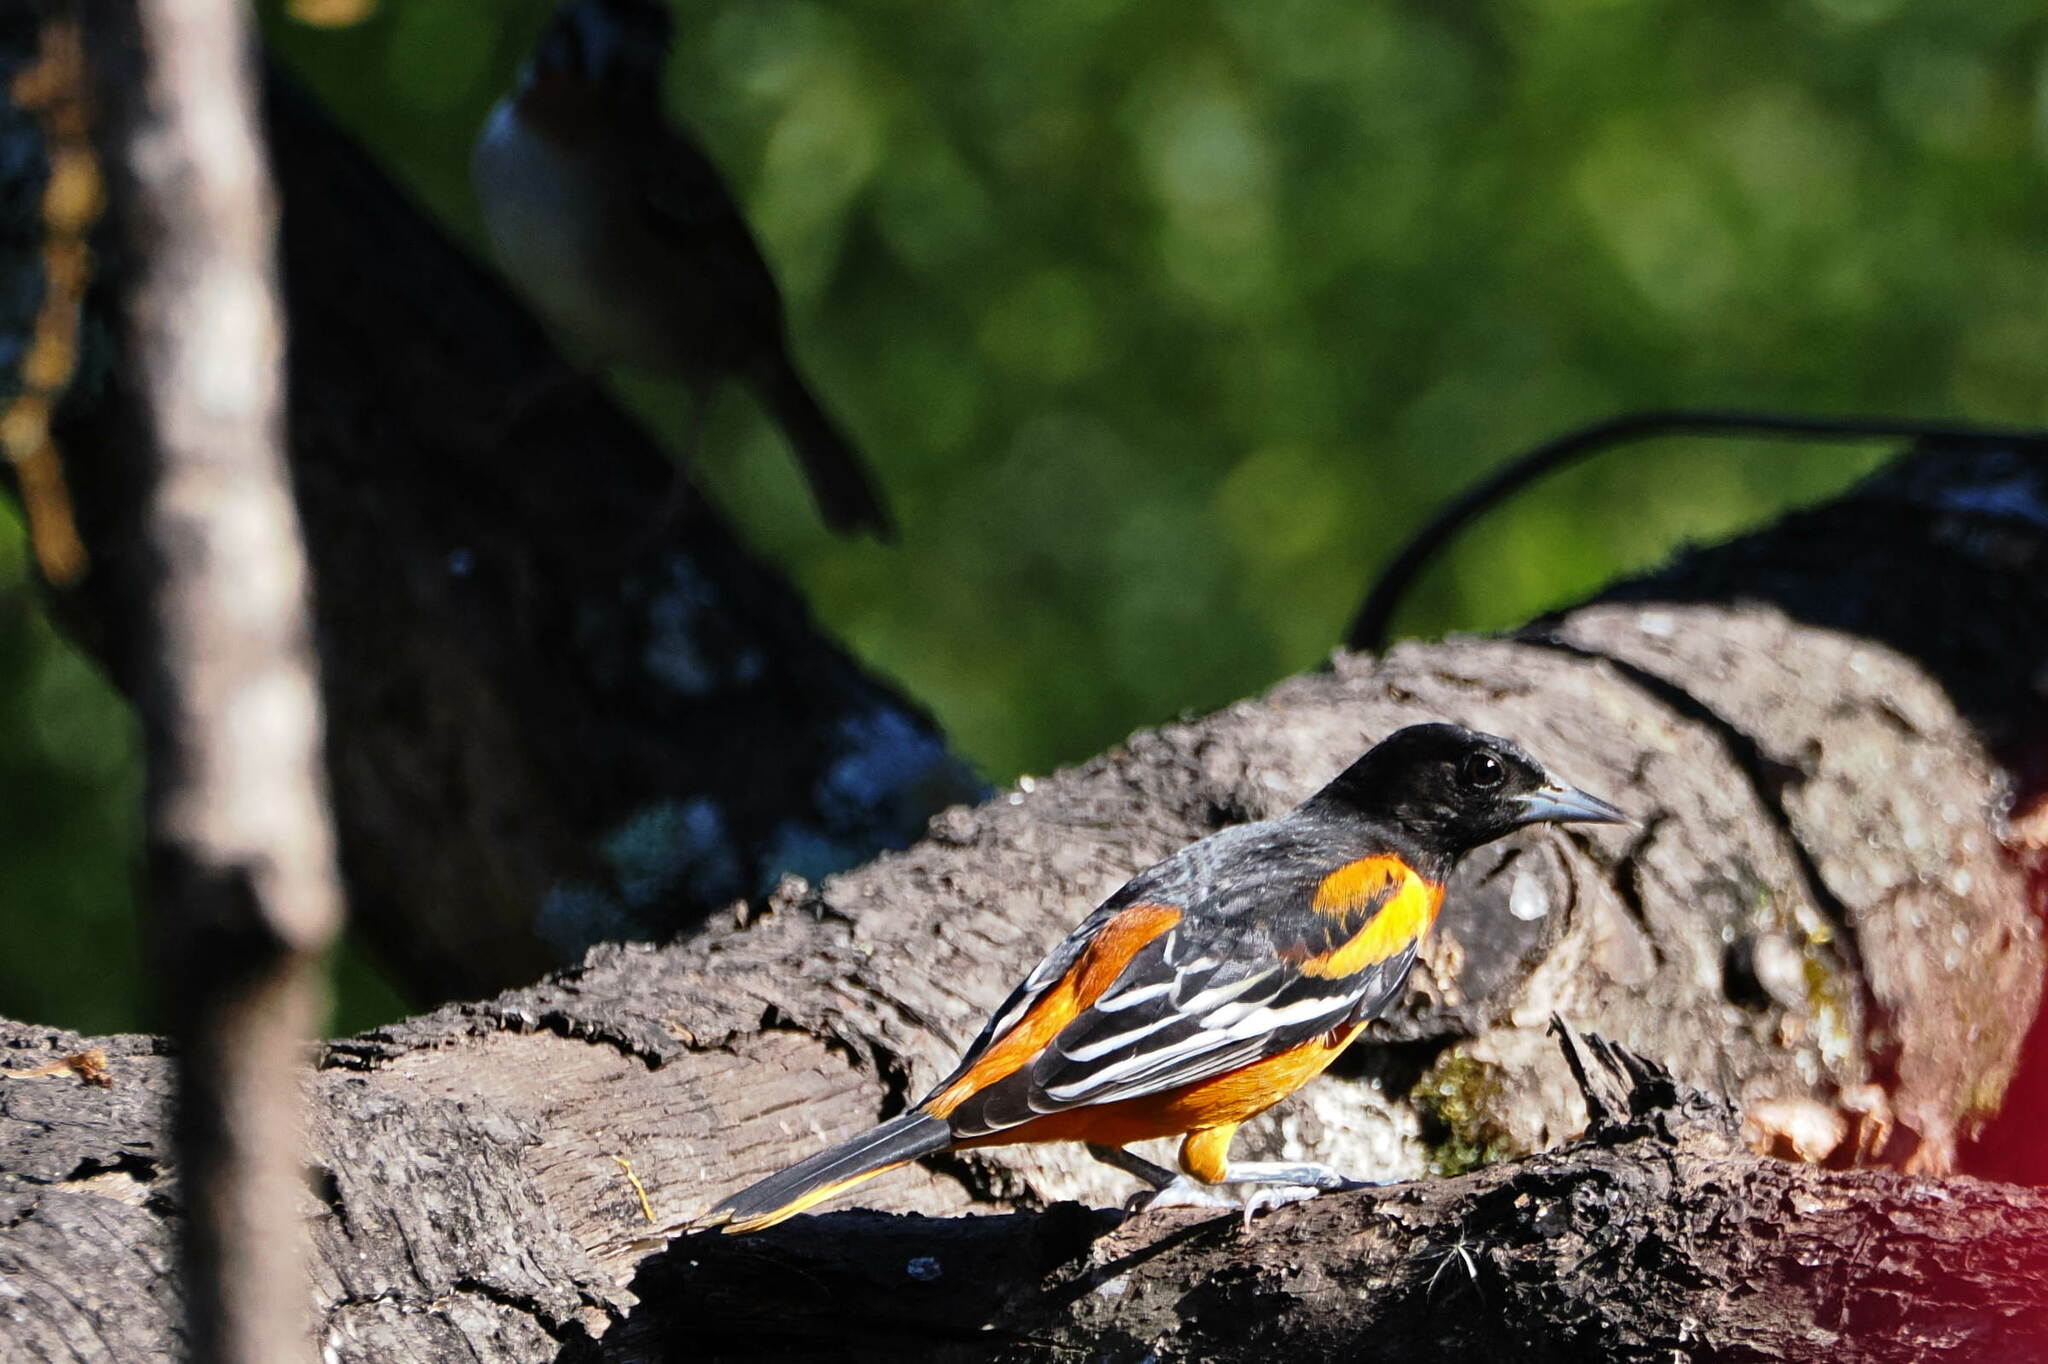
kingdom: Animalia
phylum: Chordata
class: Aves
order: Passeriformes
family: Icteridae
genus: Icterus
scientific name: Icterus galbula
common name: Baltimore oriole
